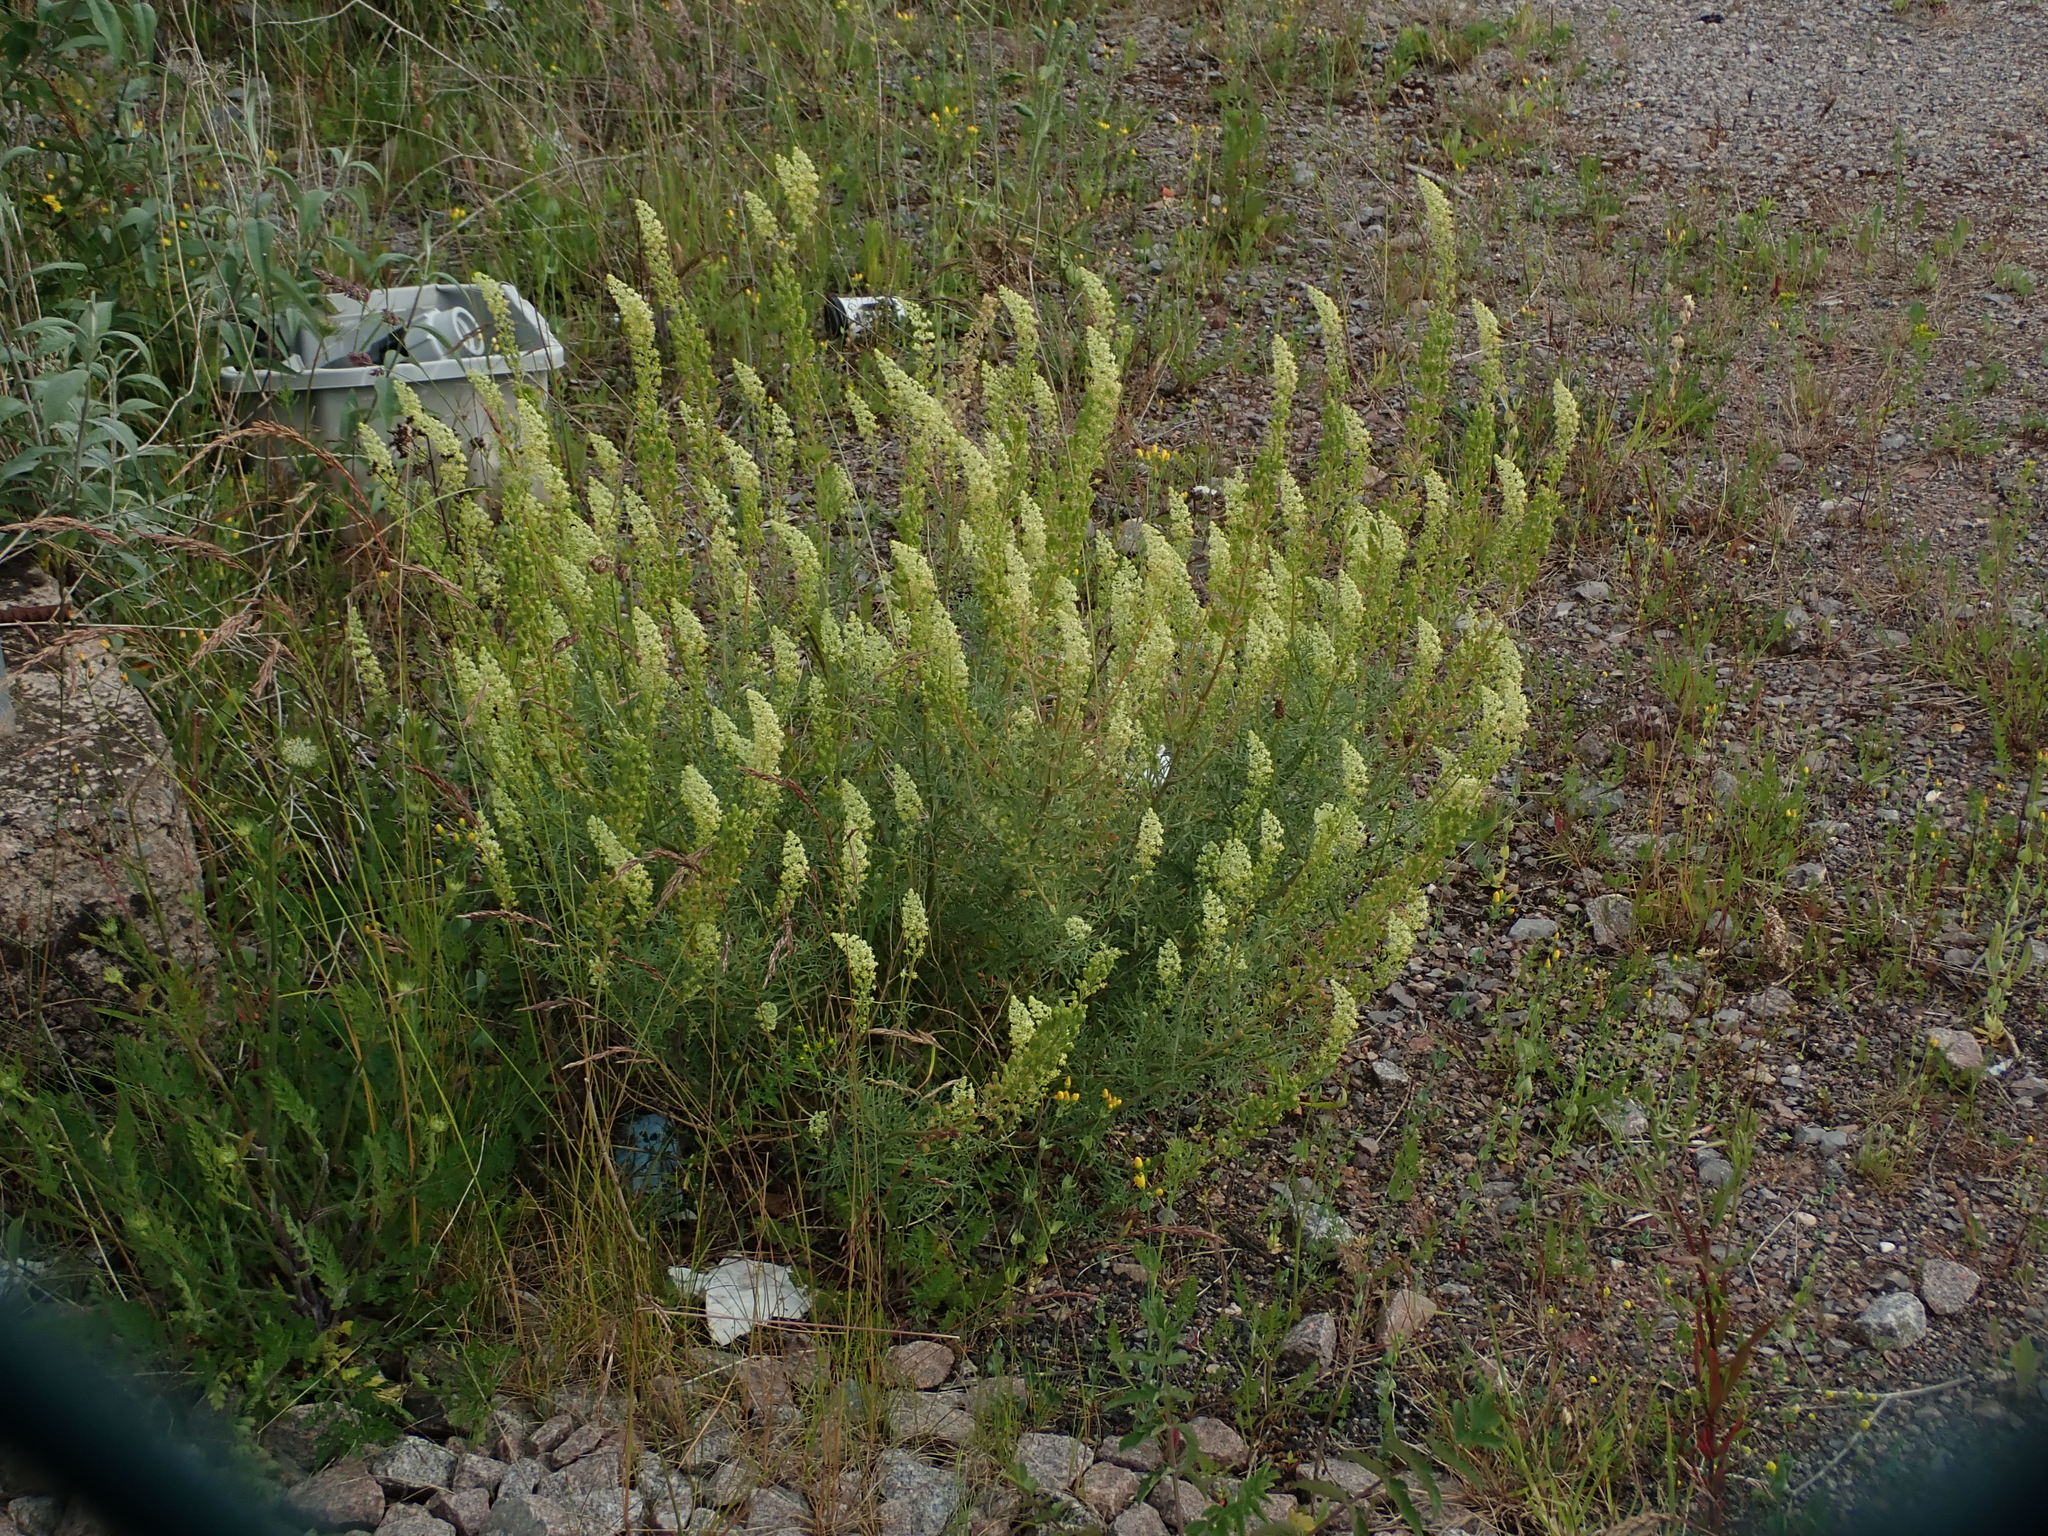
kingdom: Plantae
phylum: Tracheophyta
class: Magnoliopsida
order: Brassicales
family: Resedaceae
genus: Reseda
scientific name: Reseda lutea
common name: Wild mignonette
